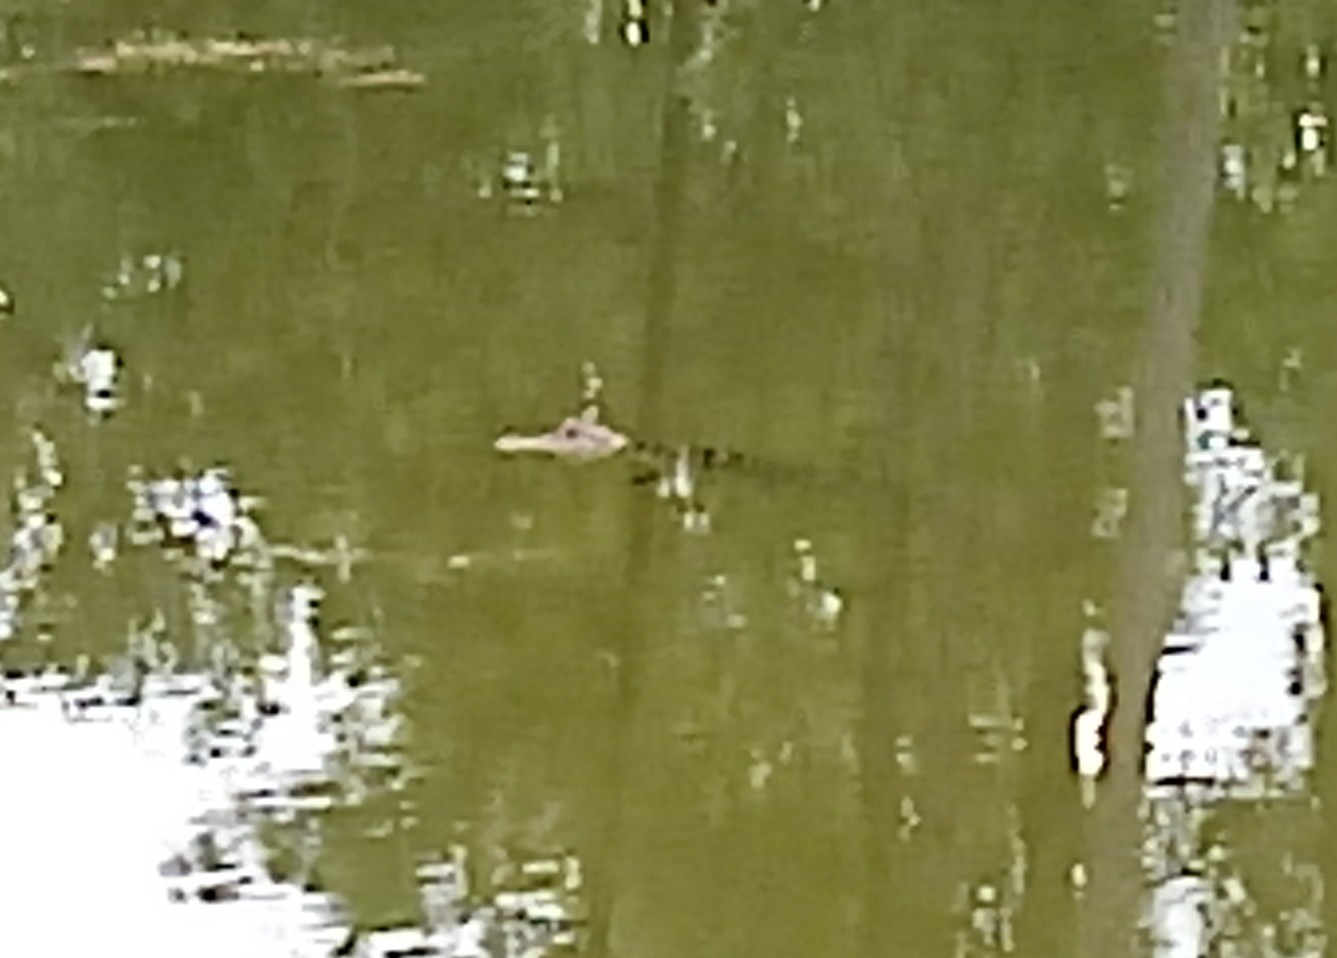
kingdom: Animalia
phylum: Chordata
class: Crocodylia
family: Alligatoridae
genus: Alligator
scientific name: Alligator mississippiensis
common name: American alligator
